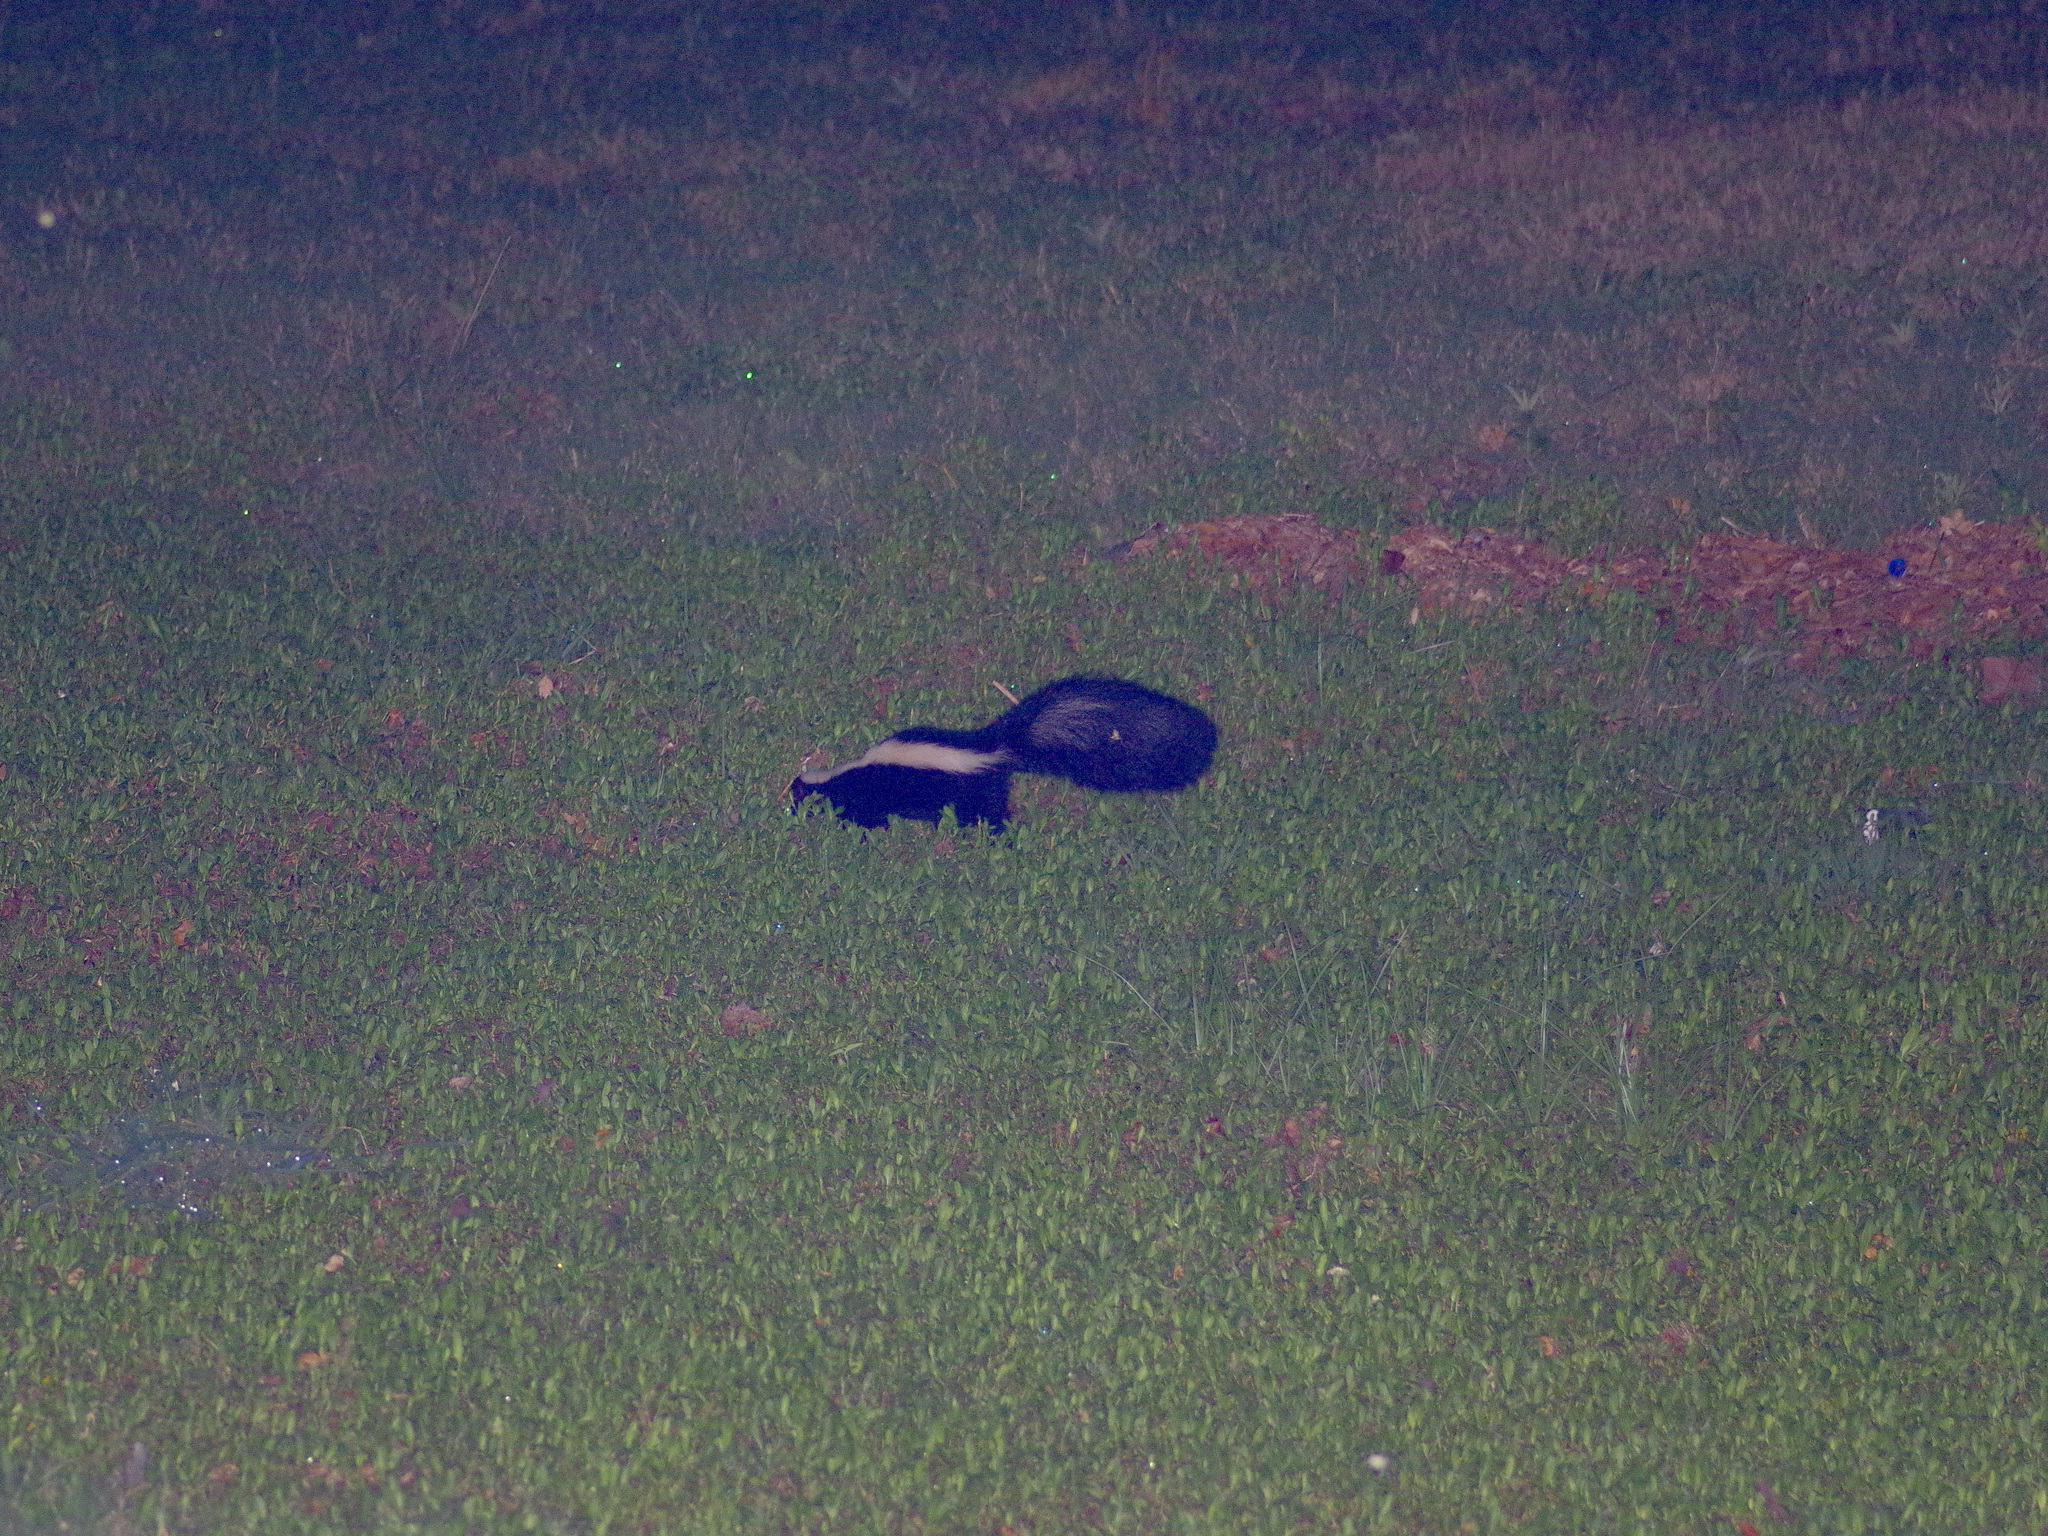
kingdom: Animalia
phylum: Chordata
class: Mammalia
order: Carnivora
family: Mephitidae
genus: Mephitis
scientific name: Mephitis mephitis
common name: Striped skunk
